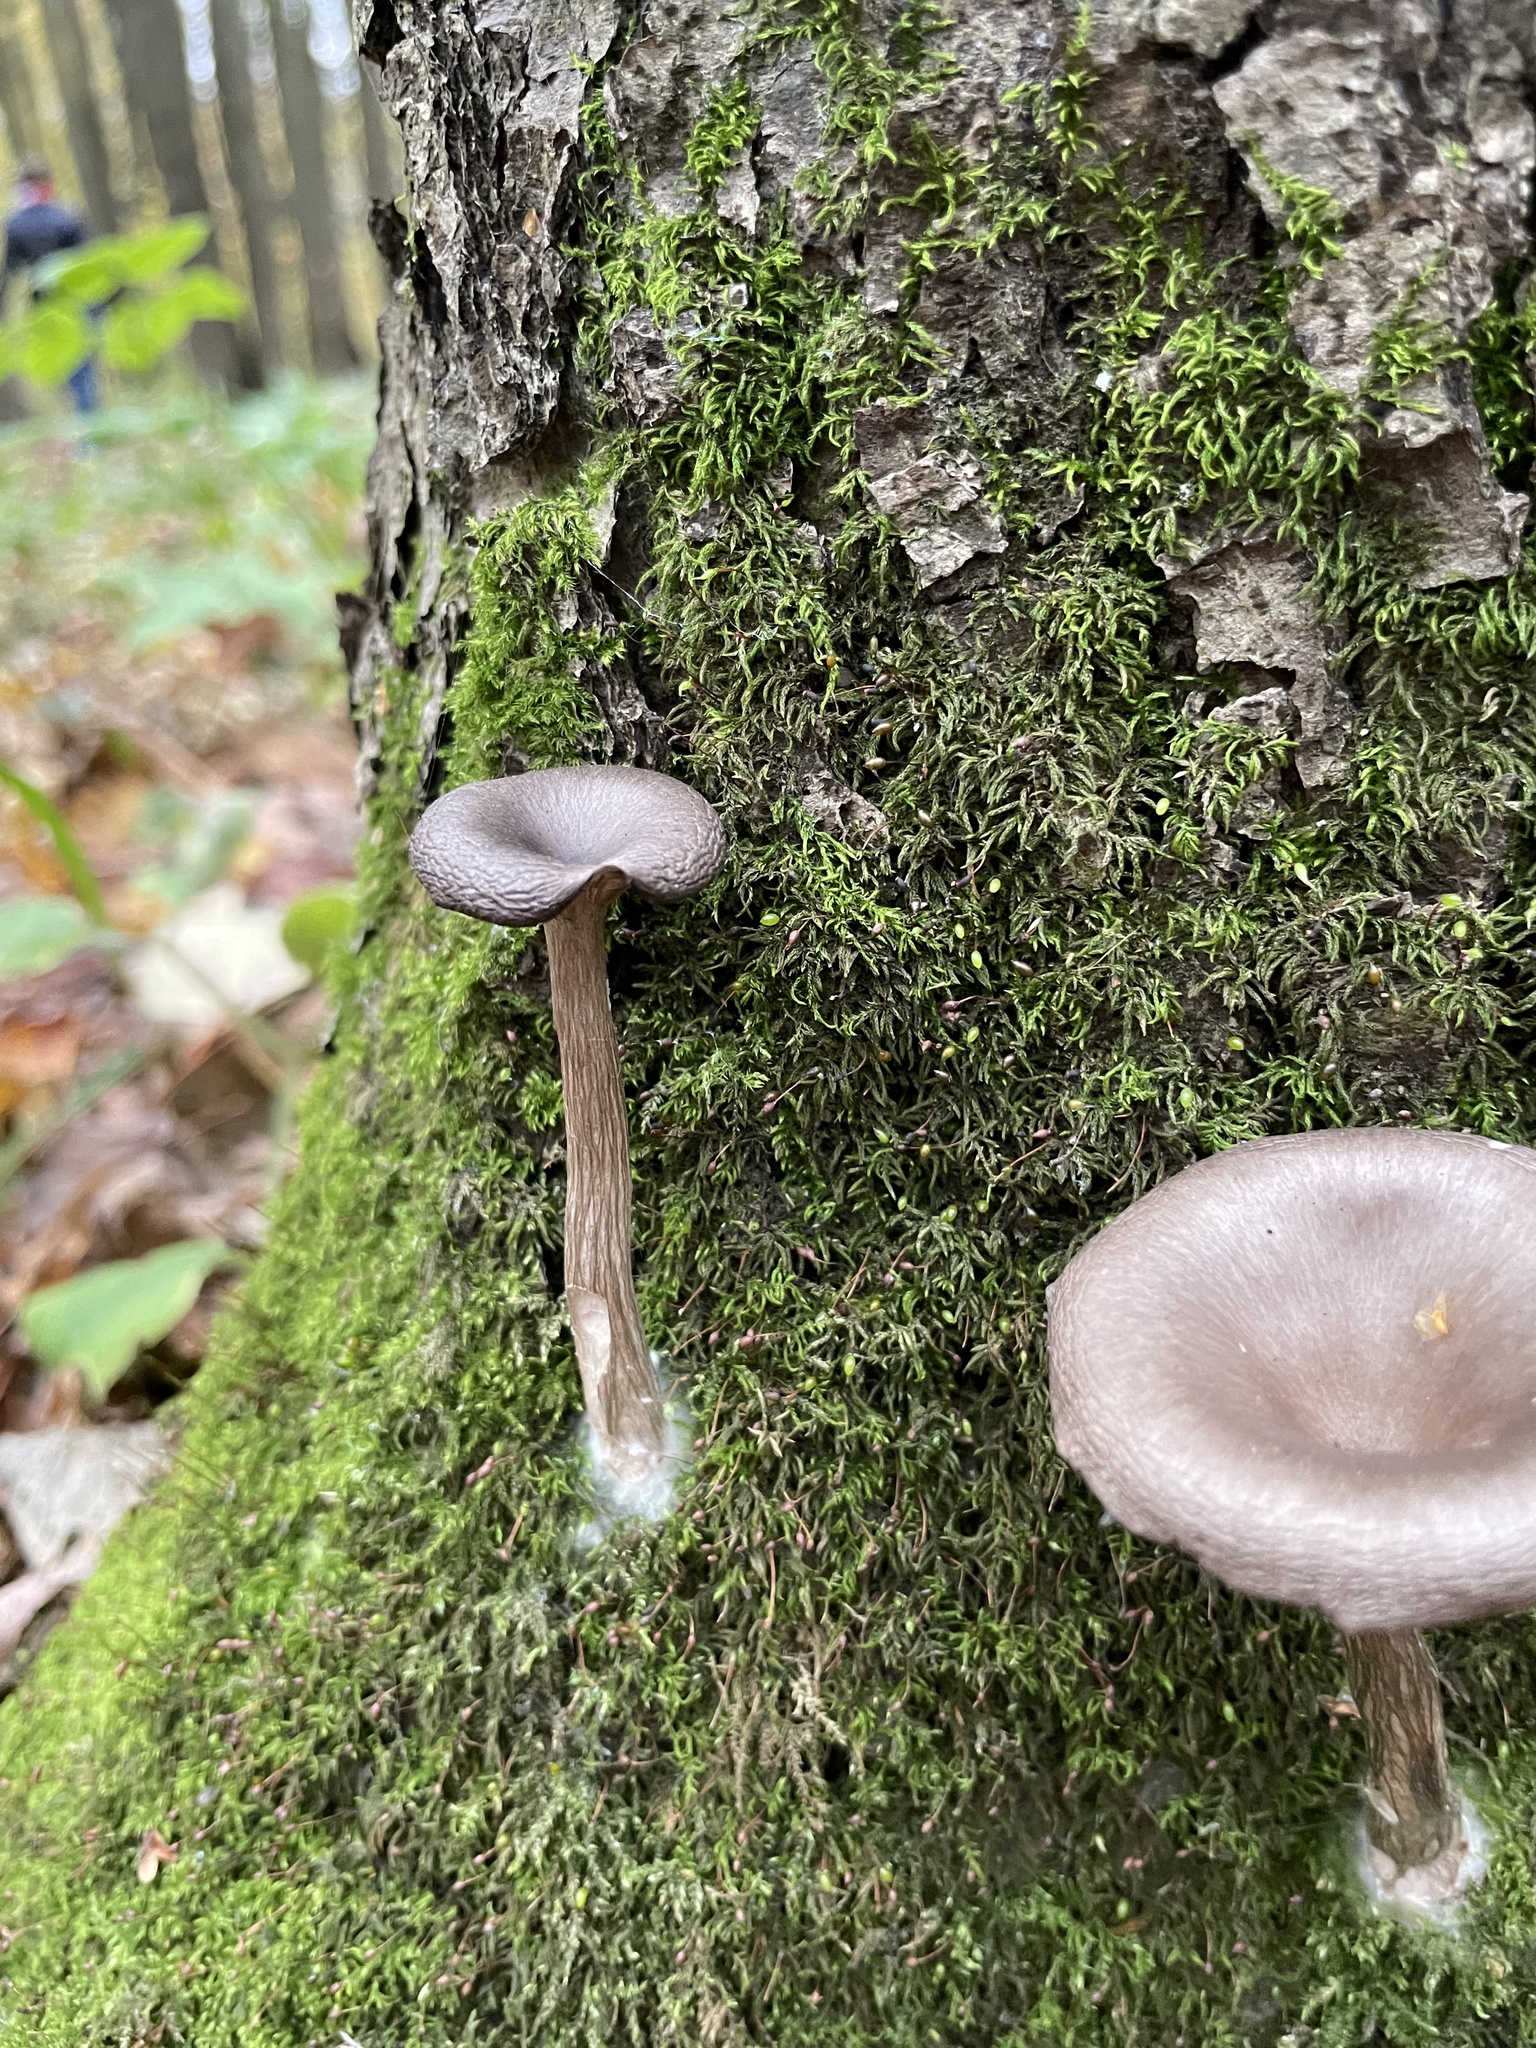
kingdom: Fungi
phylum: Basidiomycota
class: Agaricomycetes
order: Agaricales
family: Pseudoclitocybaceae
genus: Pseudoclitocybe
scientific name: Pseudoclitocybe cyathiformis
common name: Goblet
